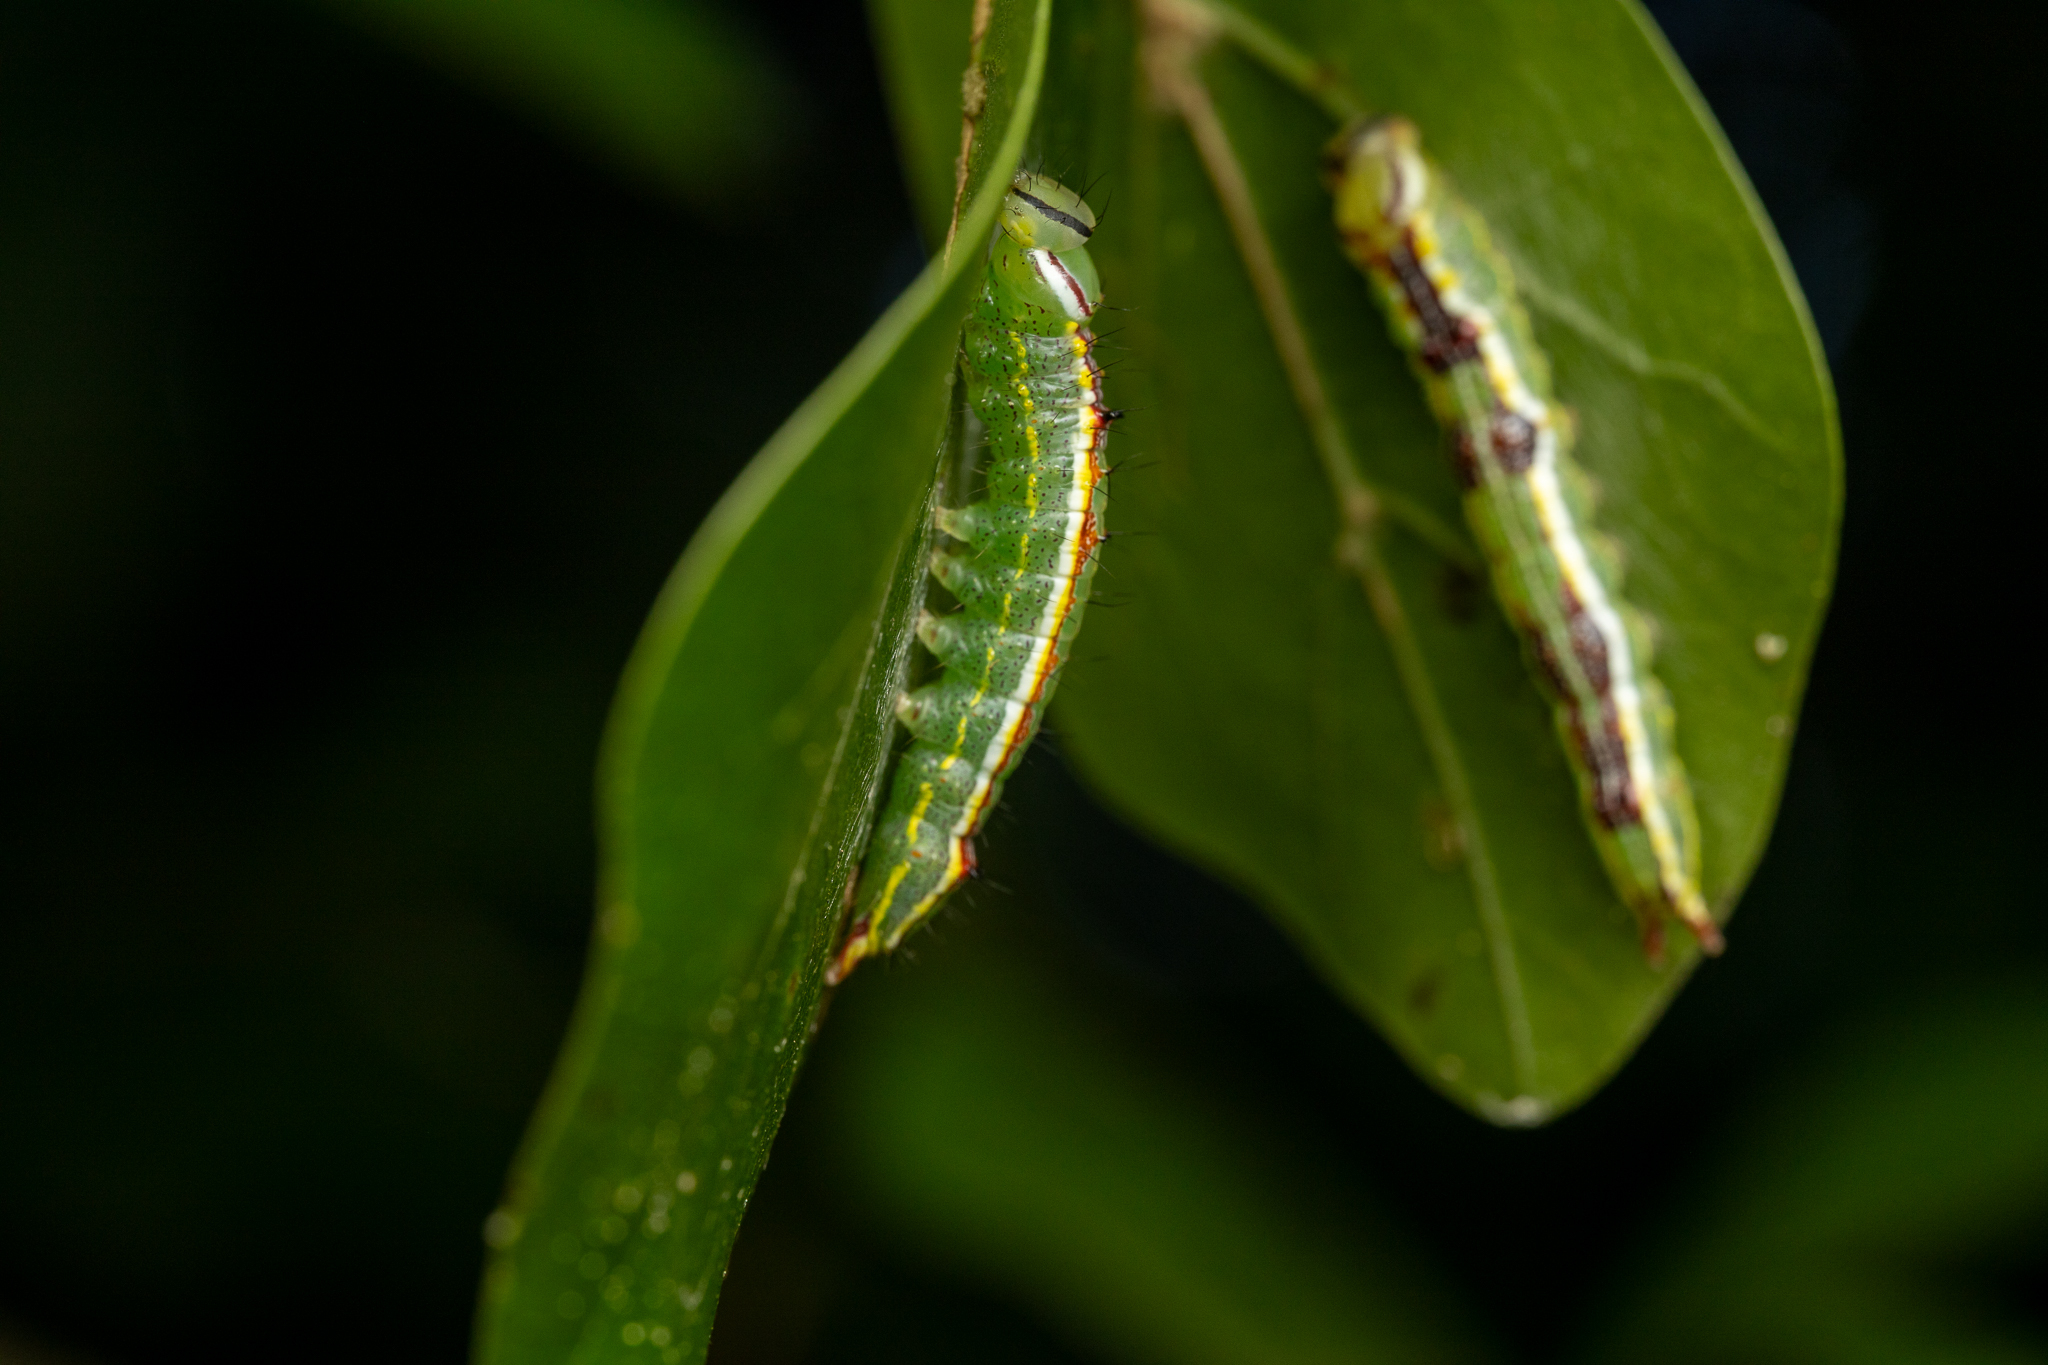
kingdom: Animalia
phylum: Arthropoda
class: Insecta
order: Lepidoptera
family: Notodontidae
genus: Lochmaeus
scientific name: Lochmaeus manteo
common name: Variable oakleaf caterpillar moth
